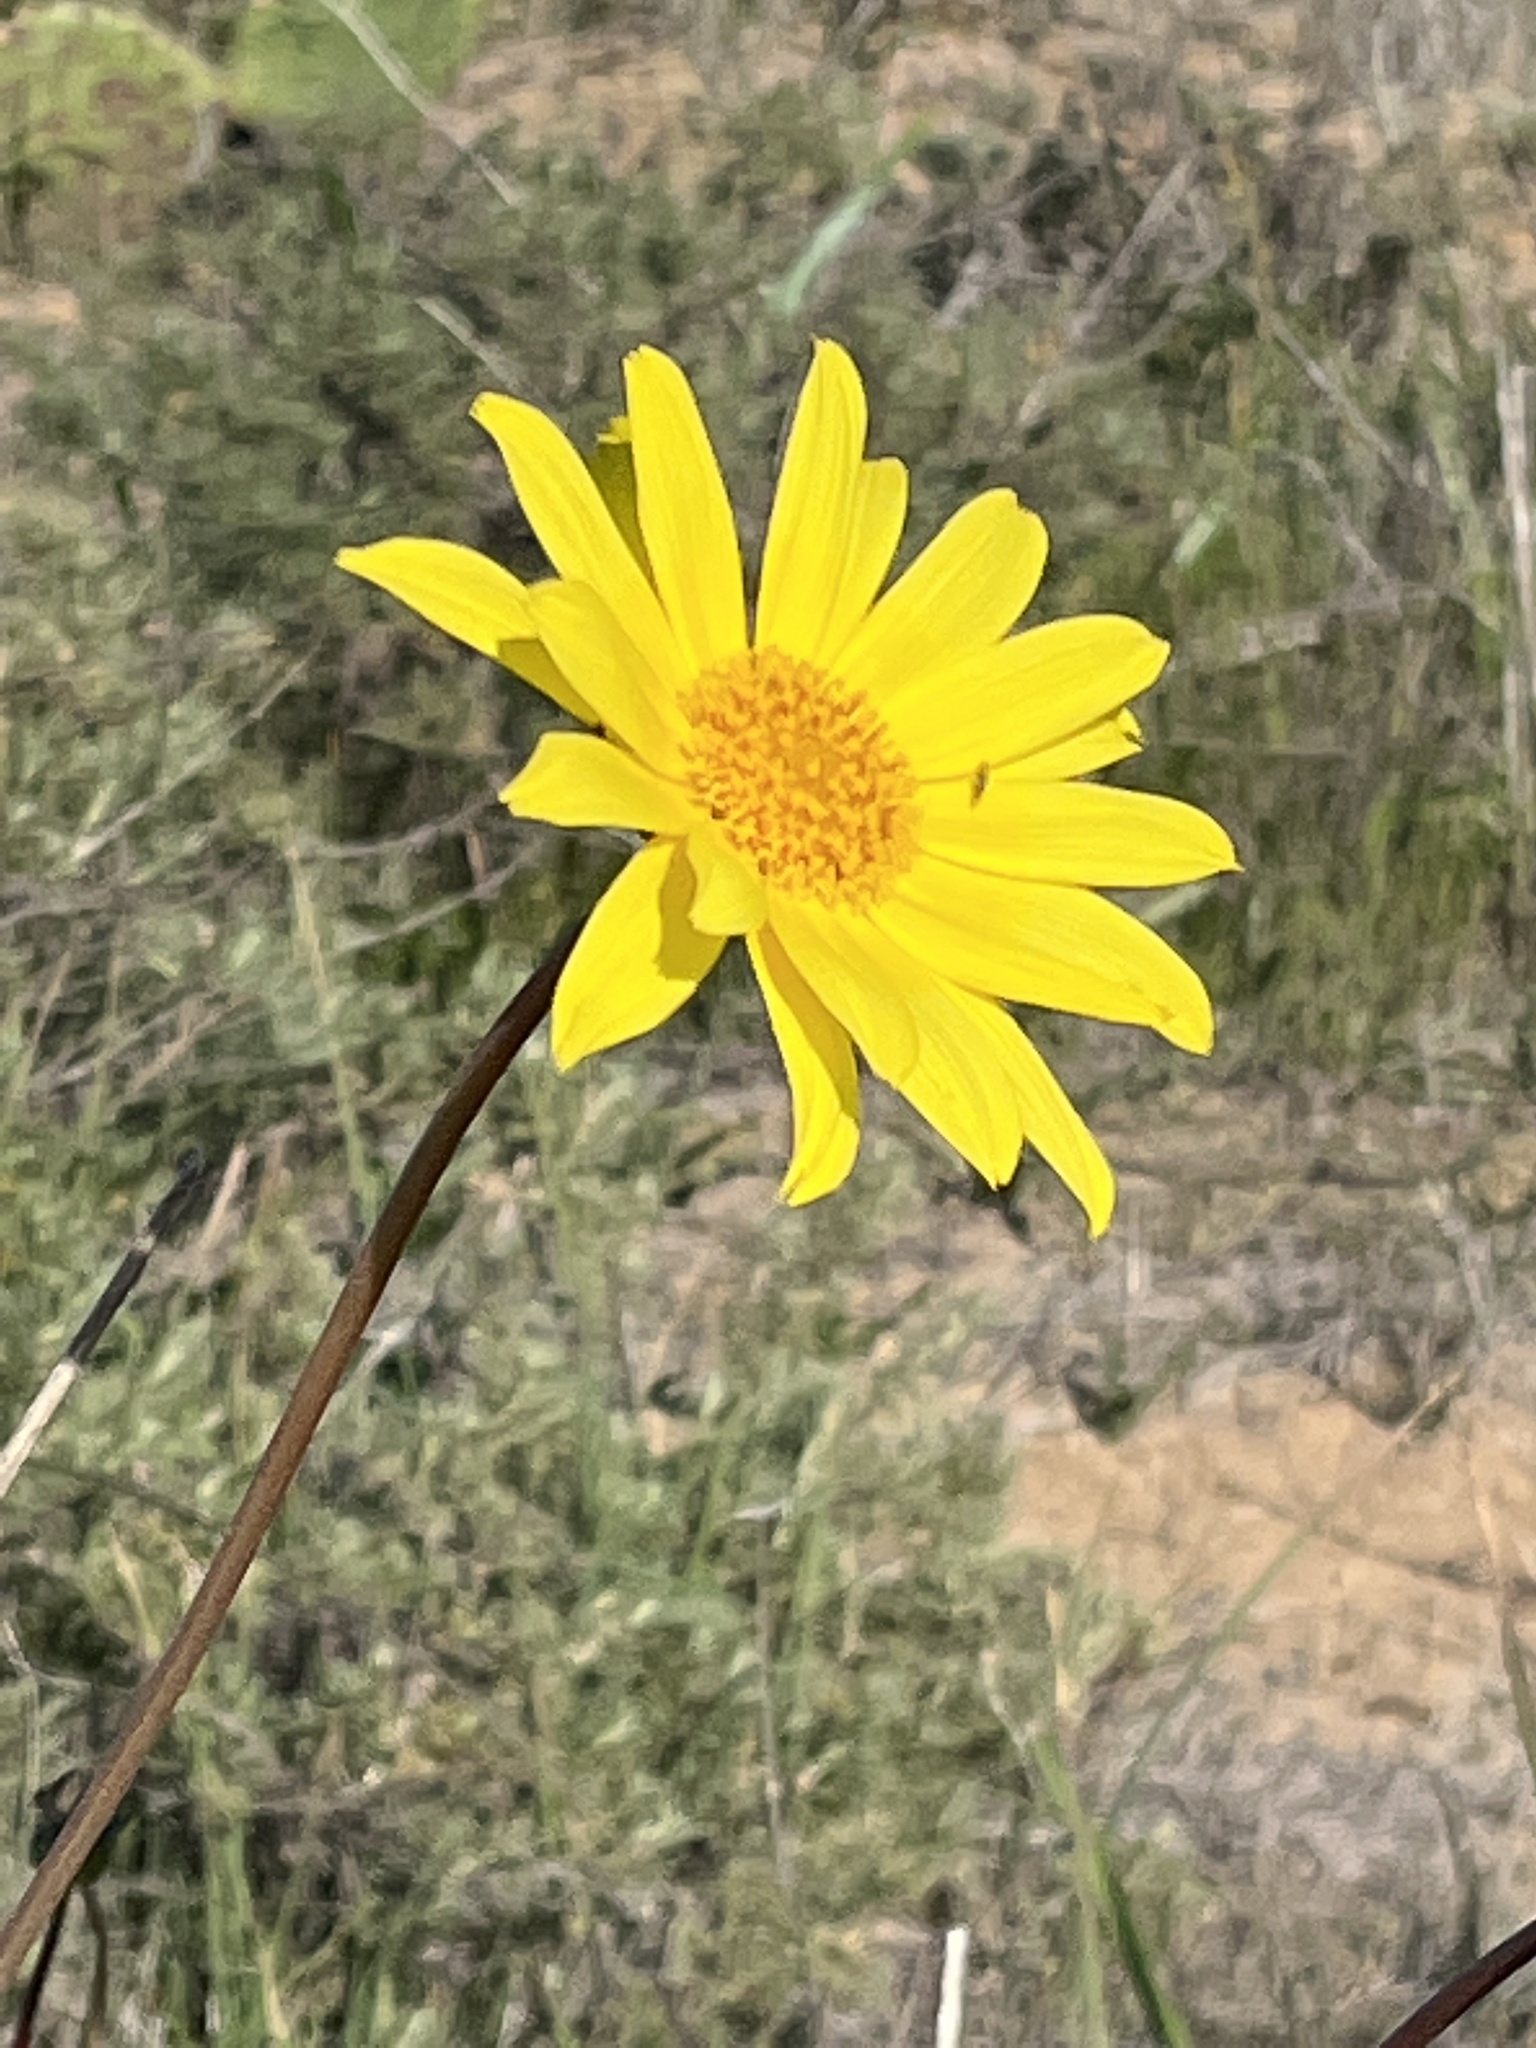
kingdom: Plantae
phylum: Tracheophyta
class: Magnoliopsida
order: Asterales
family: Asteraceae
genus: Coreopsis
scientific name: Coreopsis maritima
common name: Sea-dahlia
